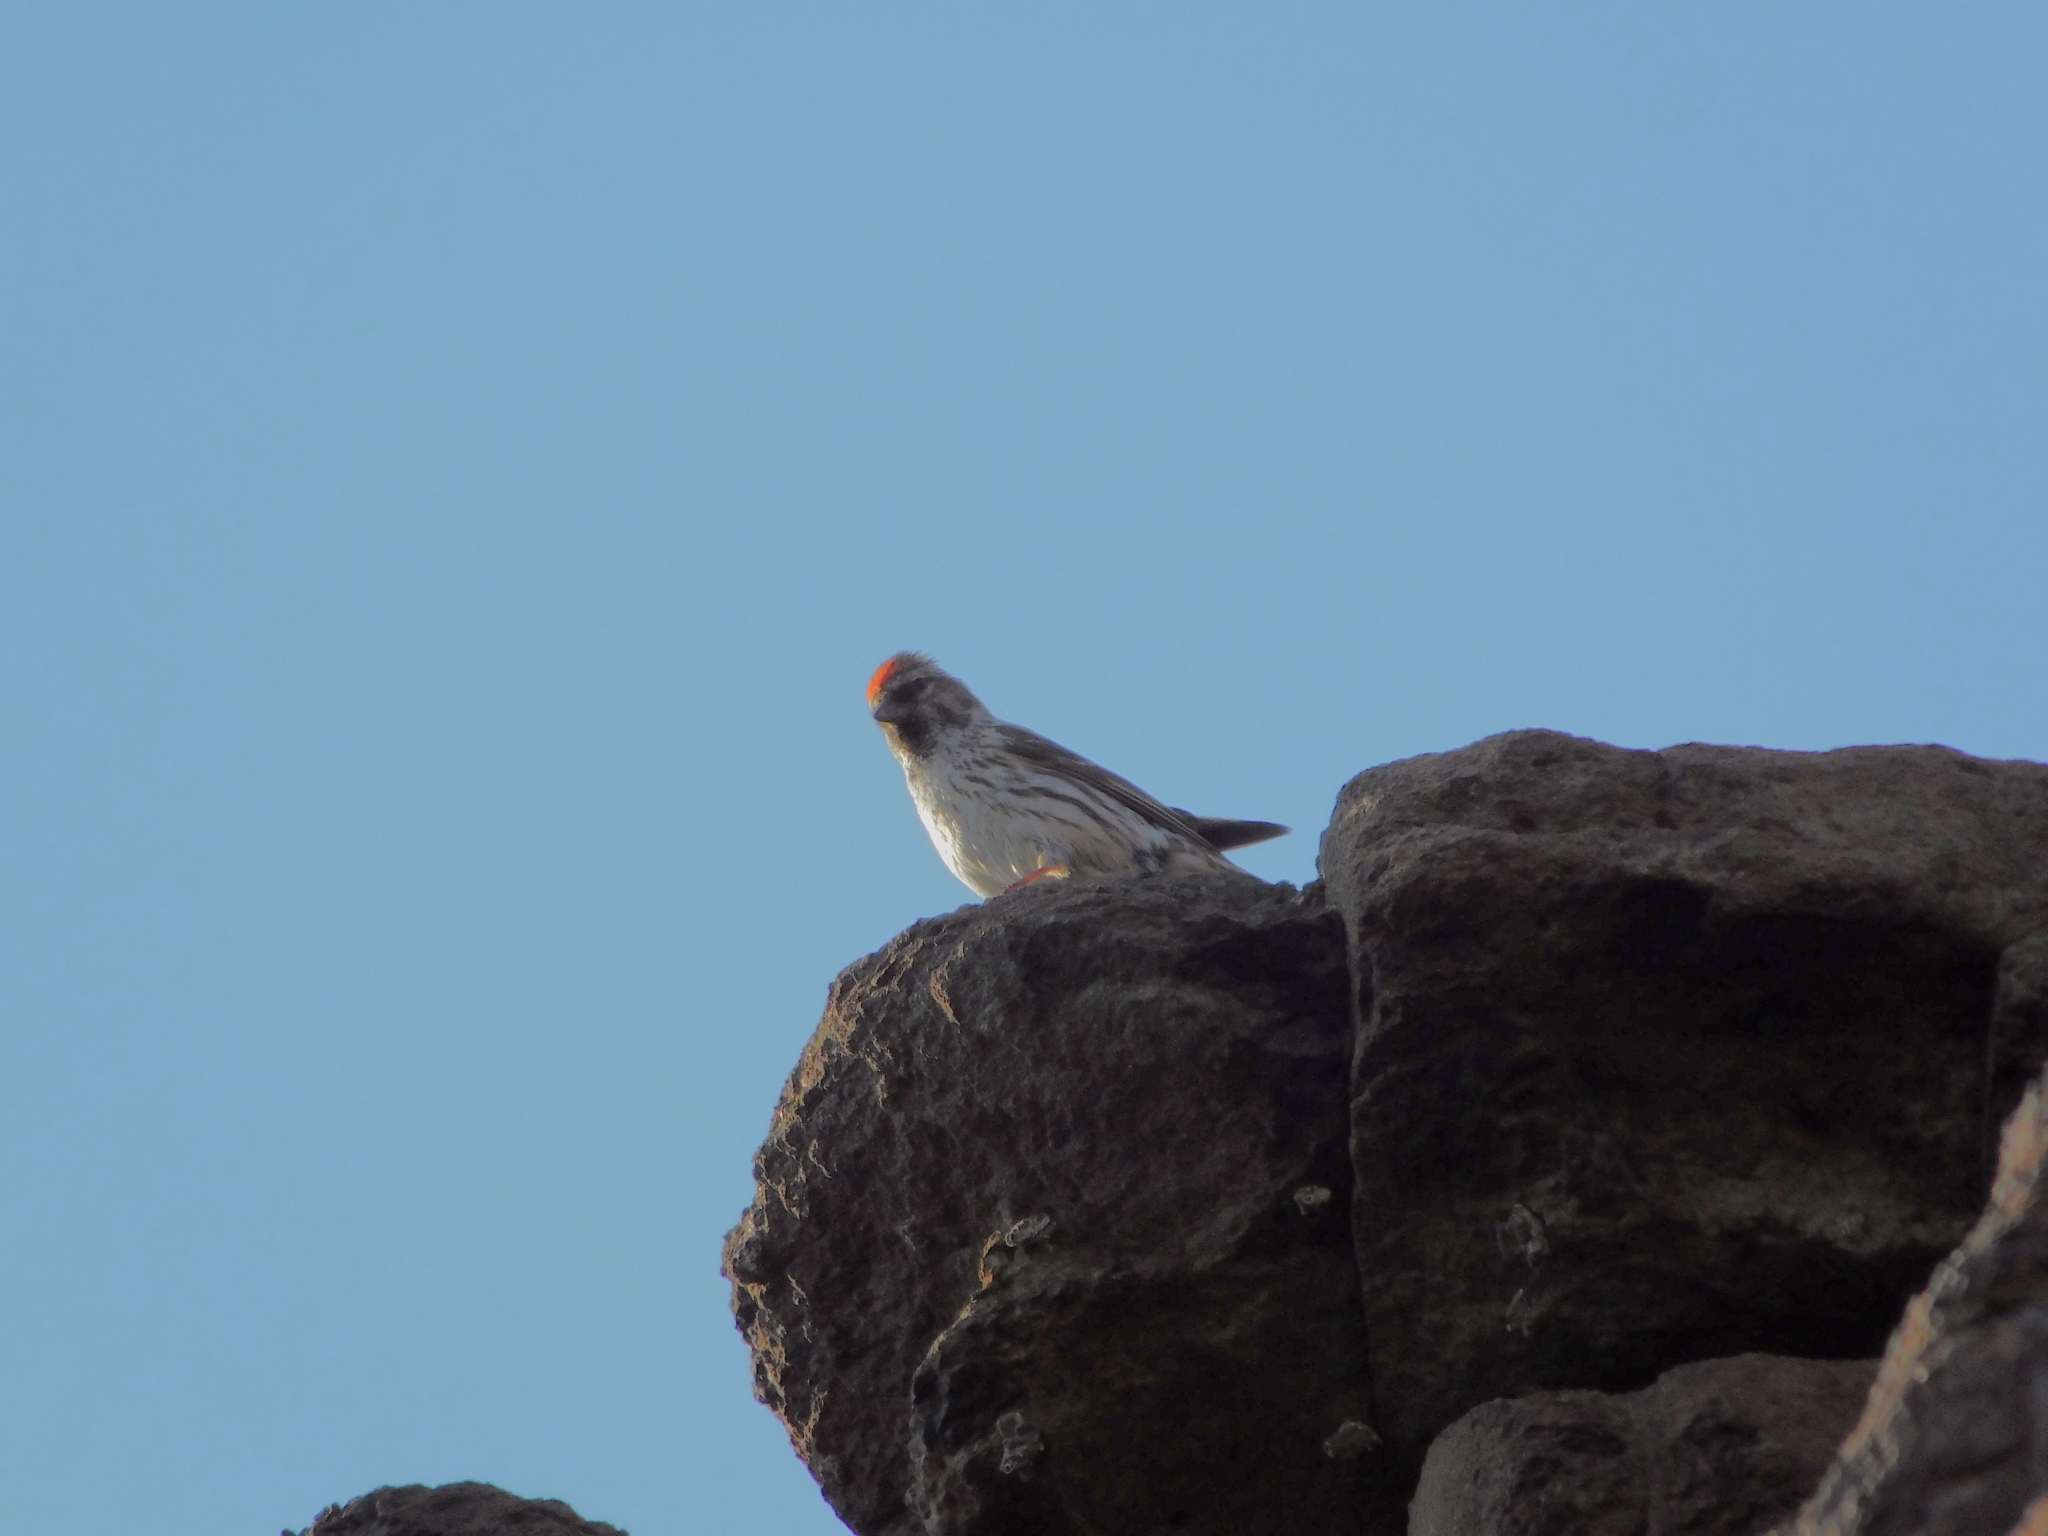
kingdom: Animalia
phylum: Chordata
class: Aves
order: Passeriformes
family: Fringillidae
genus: Acanthis
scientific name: Acanthis flammea
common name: Common redpoll
